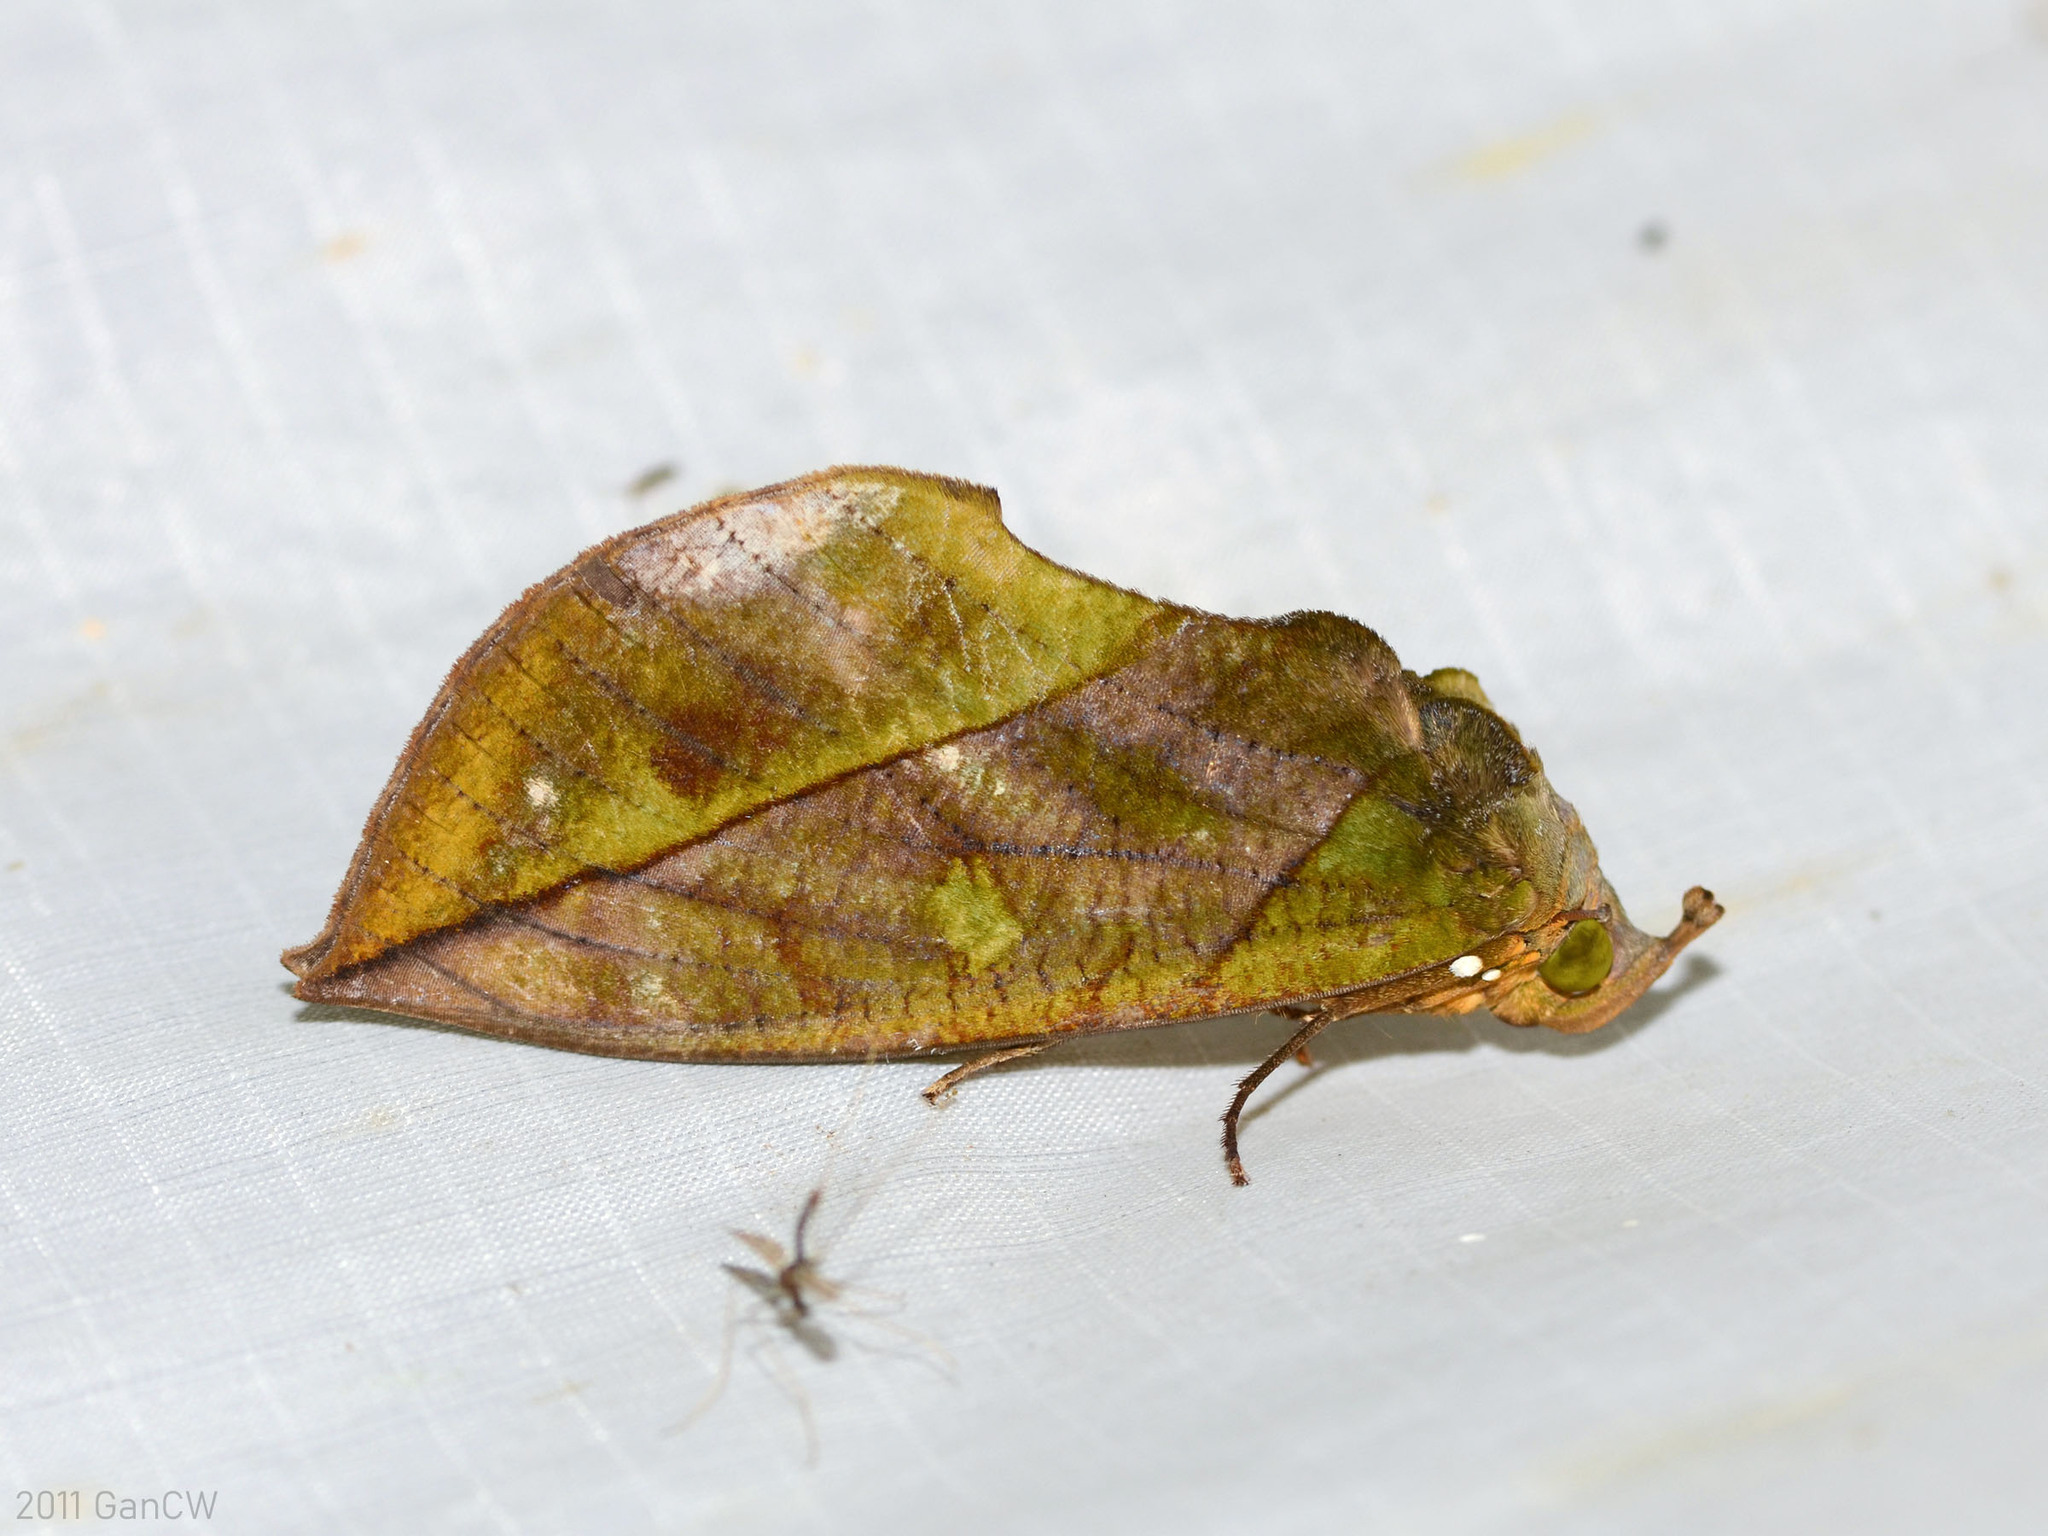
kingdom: Animalia
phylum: Arthropoda
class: Insecta
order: Lepidoptera
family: Erebidae
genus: Eudocima
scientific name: Eudocima sikhimensis
